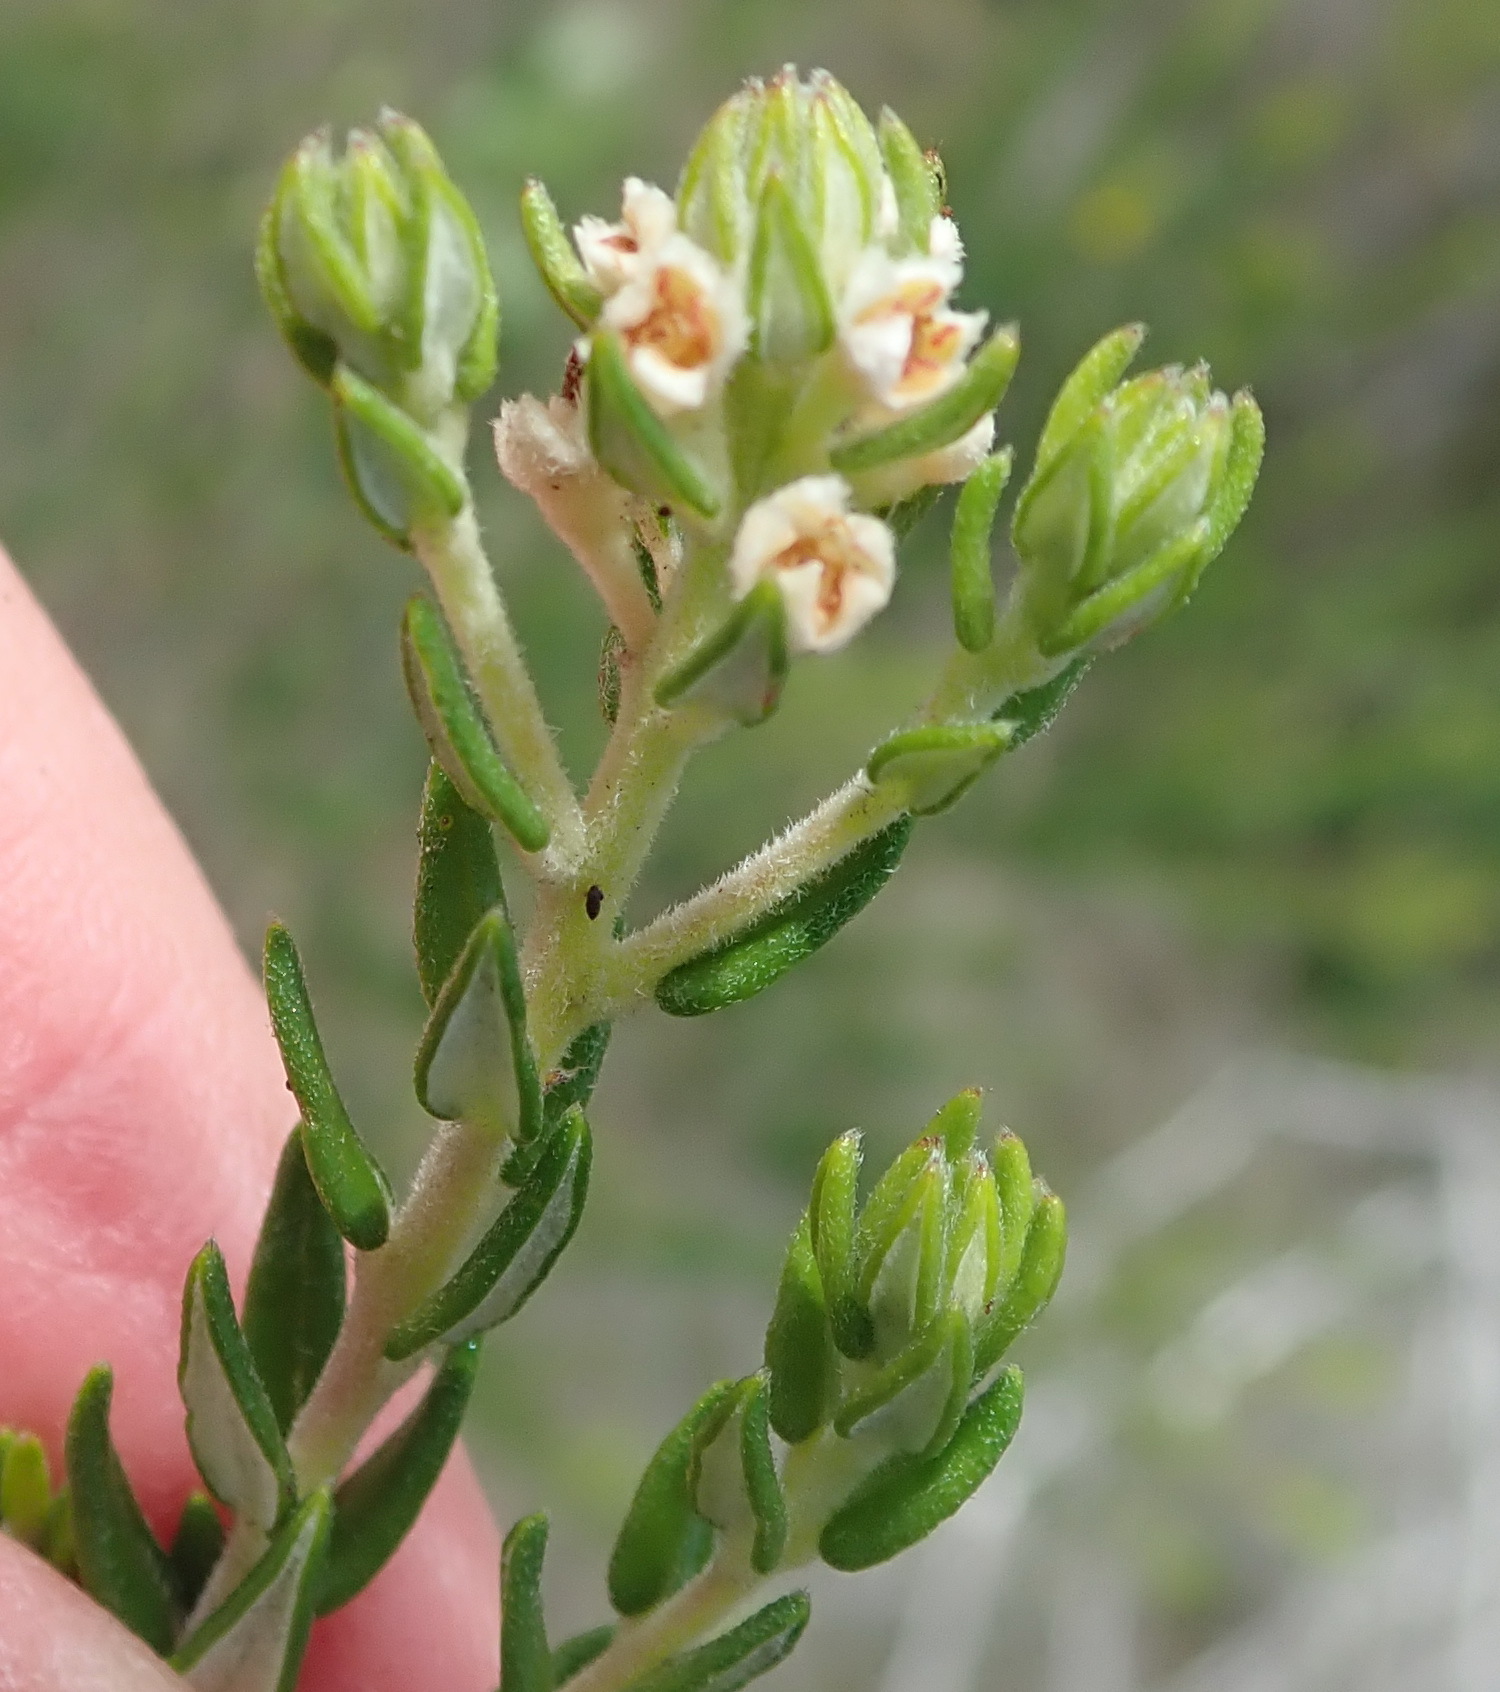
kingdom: Plantae
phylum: Tracheophyta
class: Magnoliopsida
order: Rosales
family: Rhamnaceae
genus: Phylica
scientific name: Phylica purpurea
